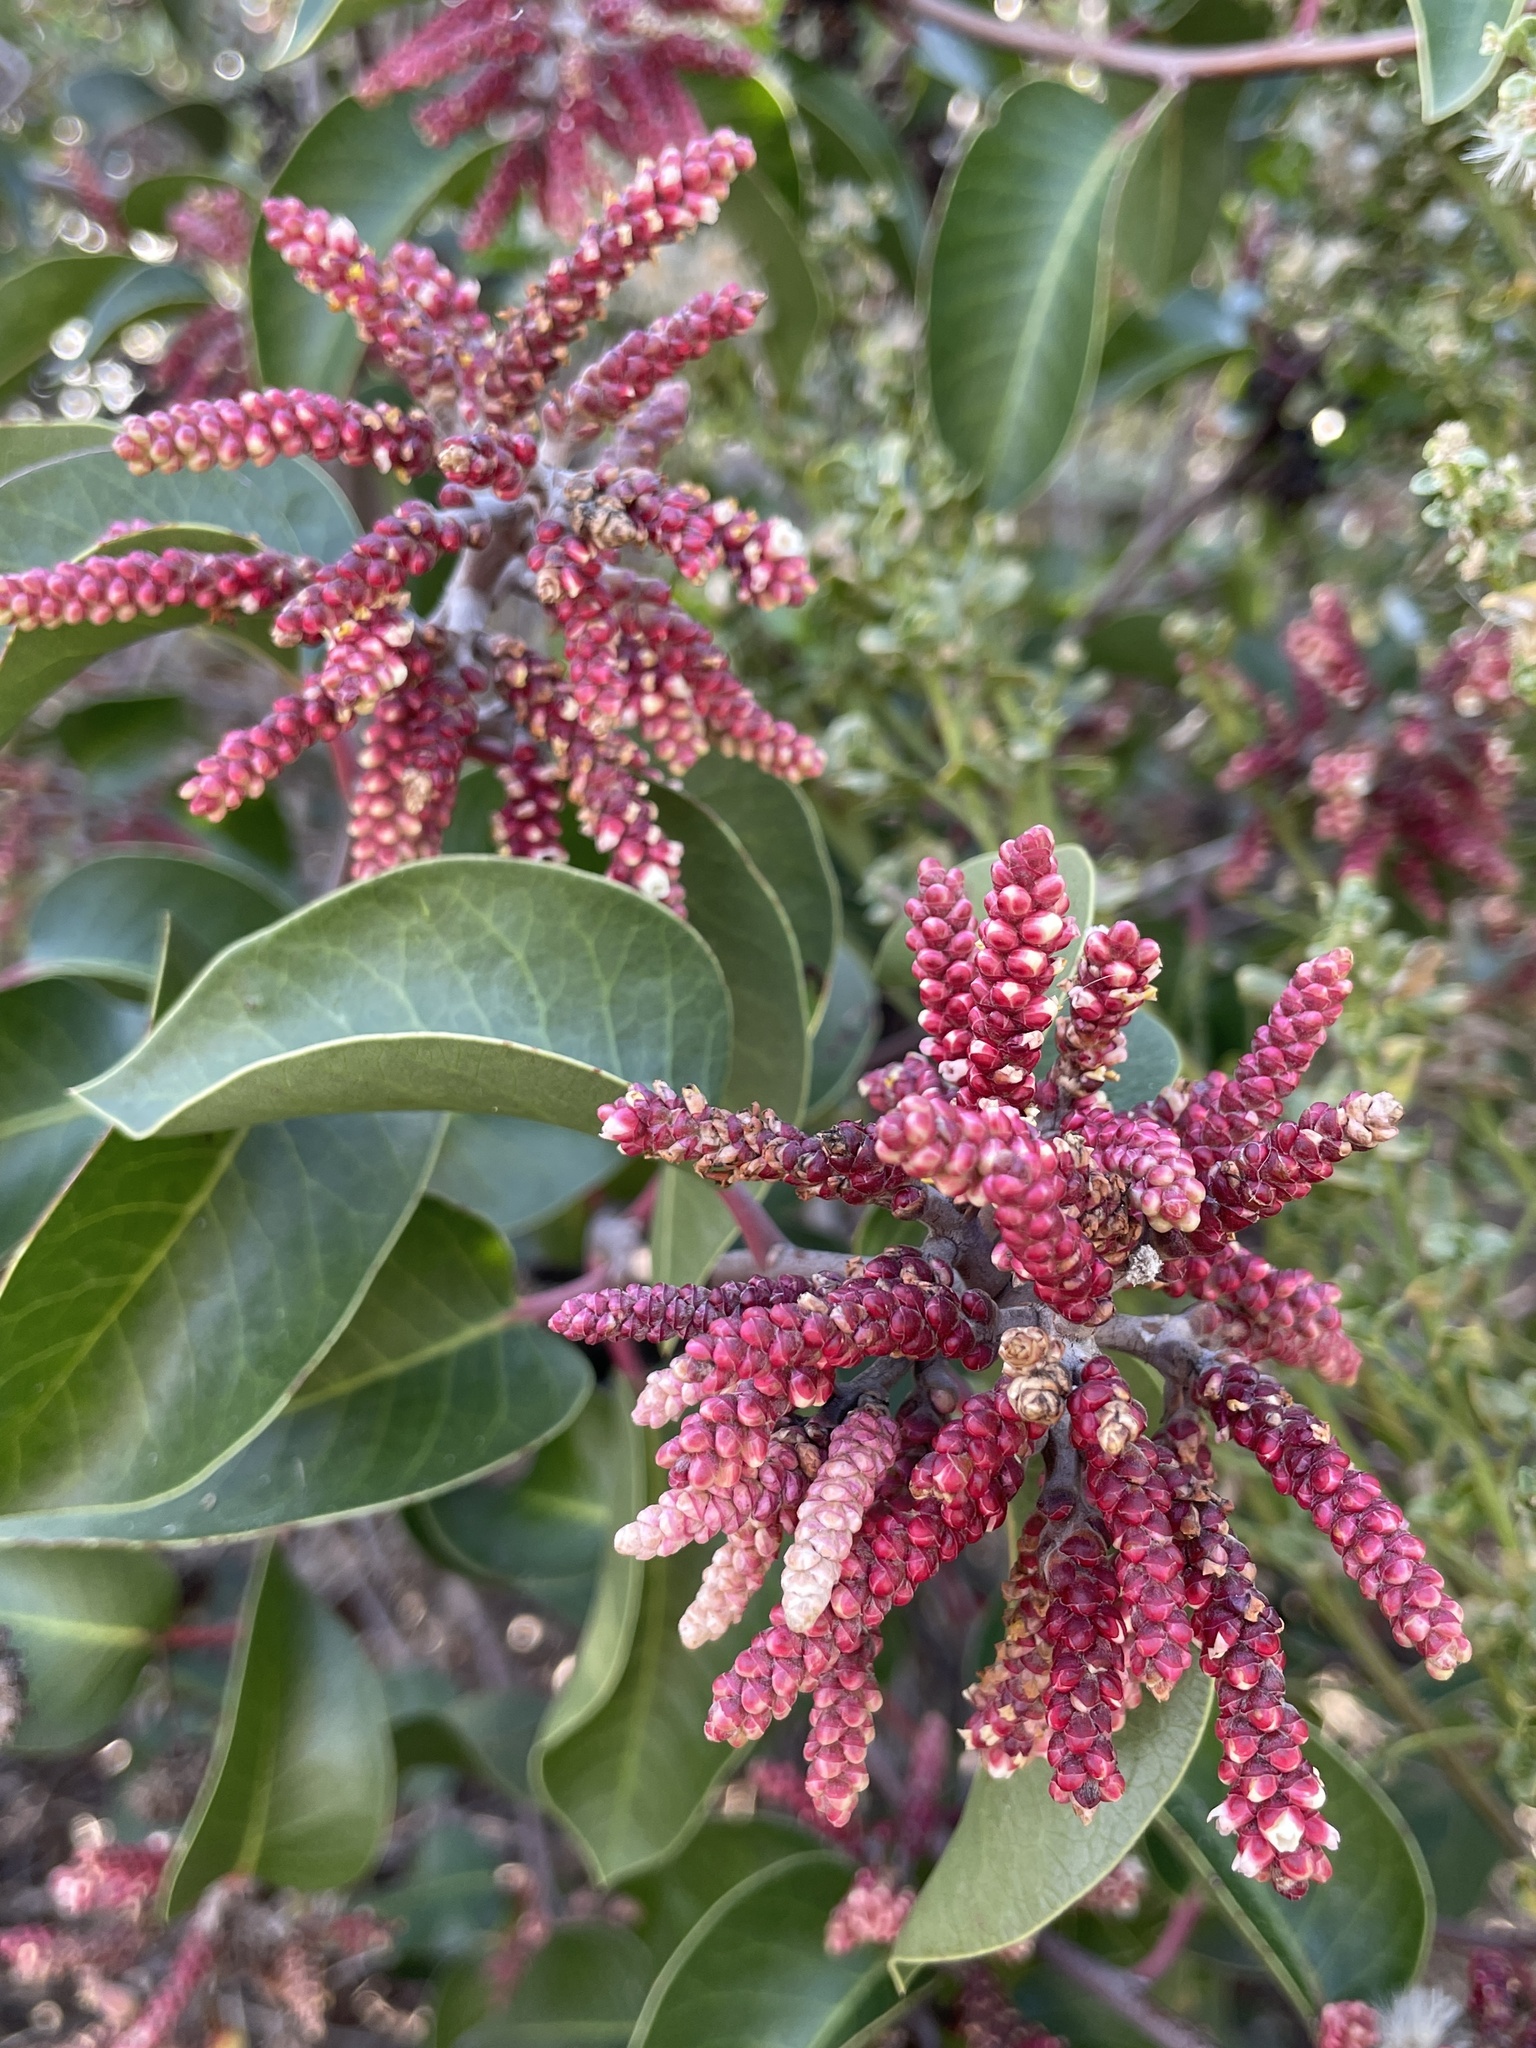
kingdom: Plantae
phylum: Tracheophyta
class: Magnoliopsida
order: Sapindales
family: Anacardiaceae
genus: Rhus
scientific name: Rhus ovata
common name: Sugar sumac
